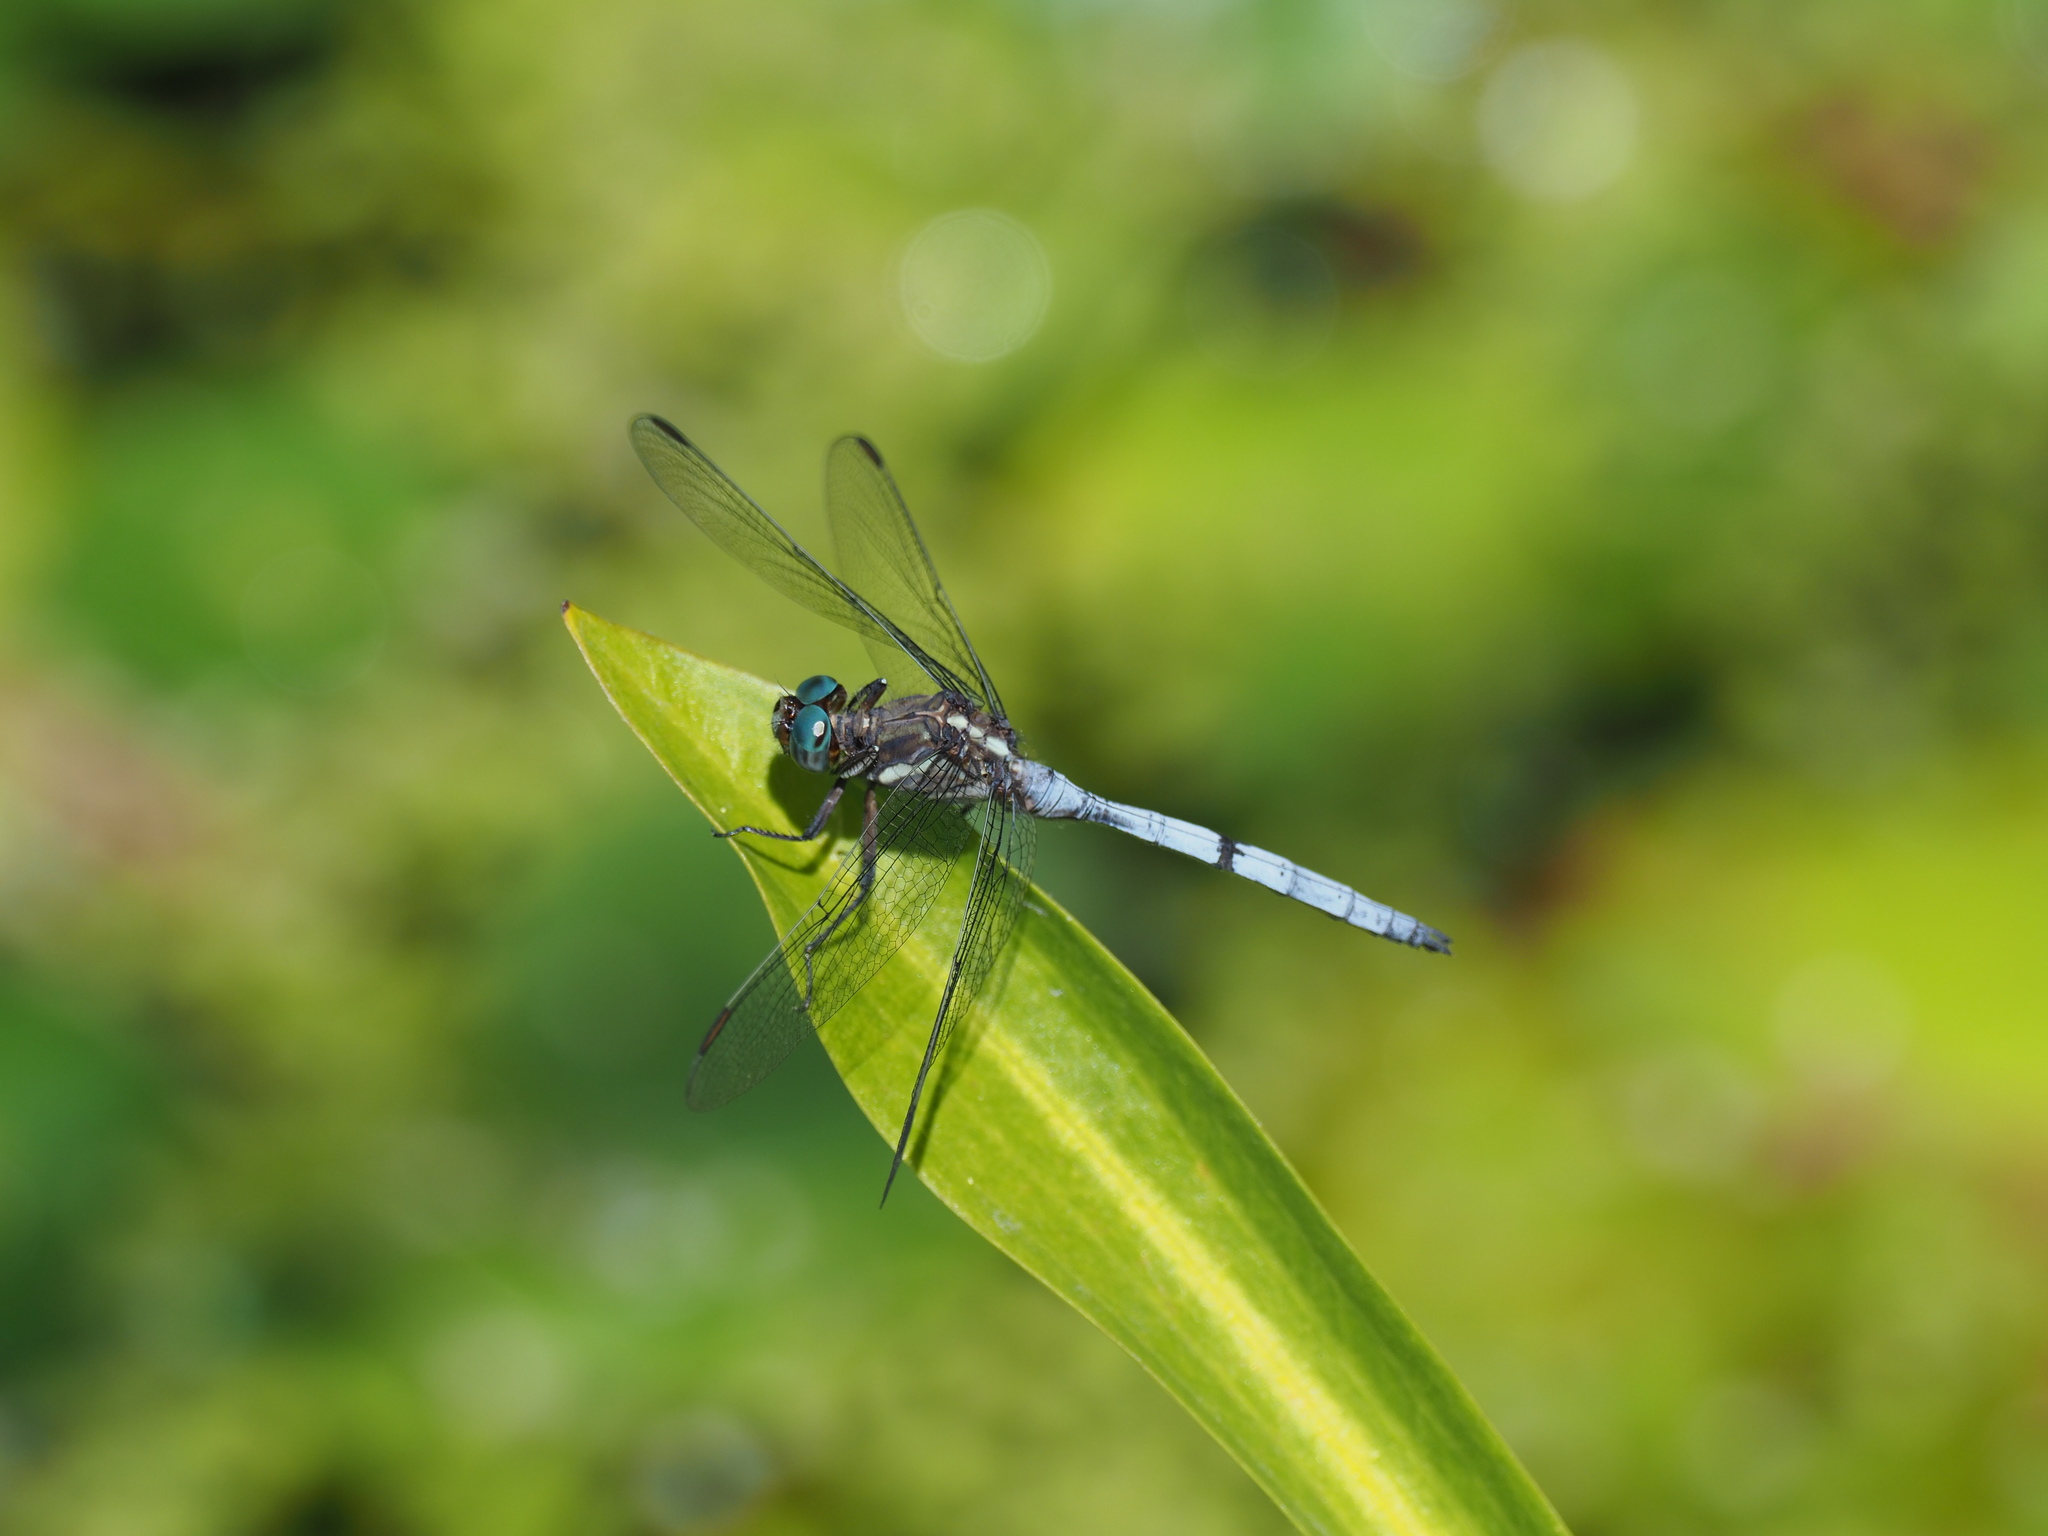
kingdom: Animalia
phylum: Arthropoda
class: Insecta
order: Odonata
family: Libellulidae
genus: Orthetrum
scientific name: Orthetrum julia
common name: Julia skimmer
